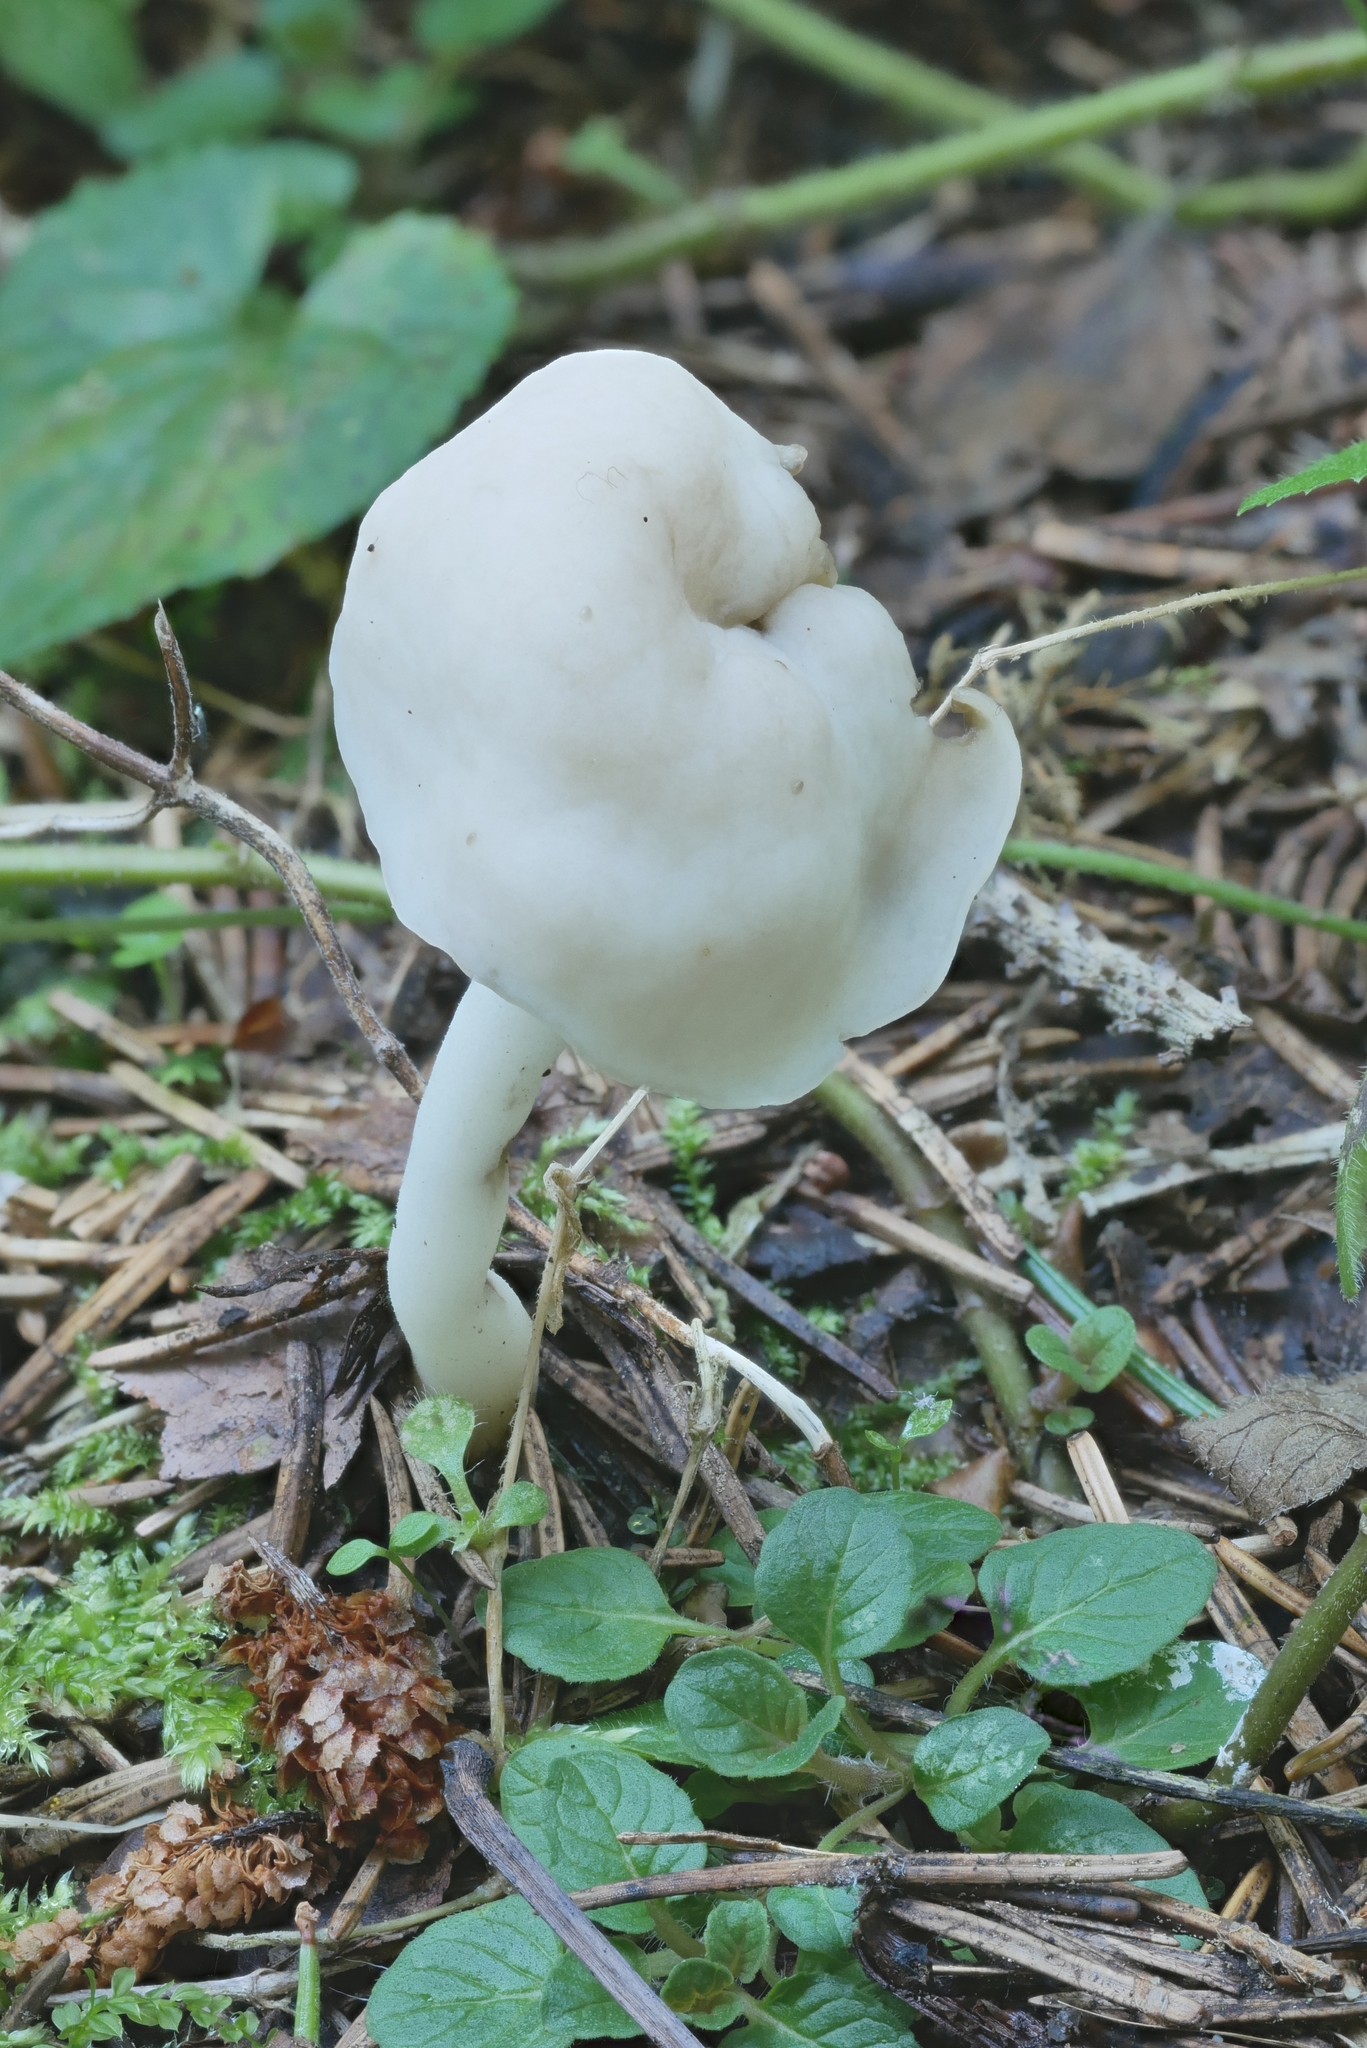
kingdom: Fungi
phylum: Ascomycota
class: Pezizomycetes
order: Pezizales
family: Helvellaceae
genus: Helvella
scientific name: Helvella elastica
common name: Elastic saddle
